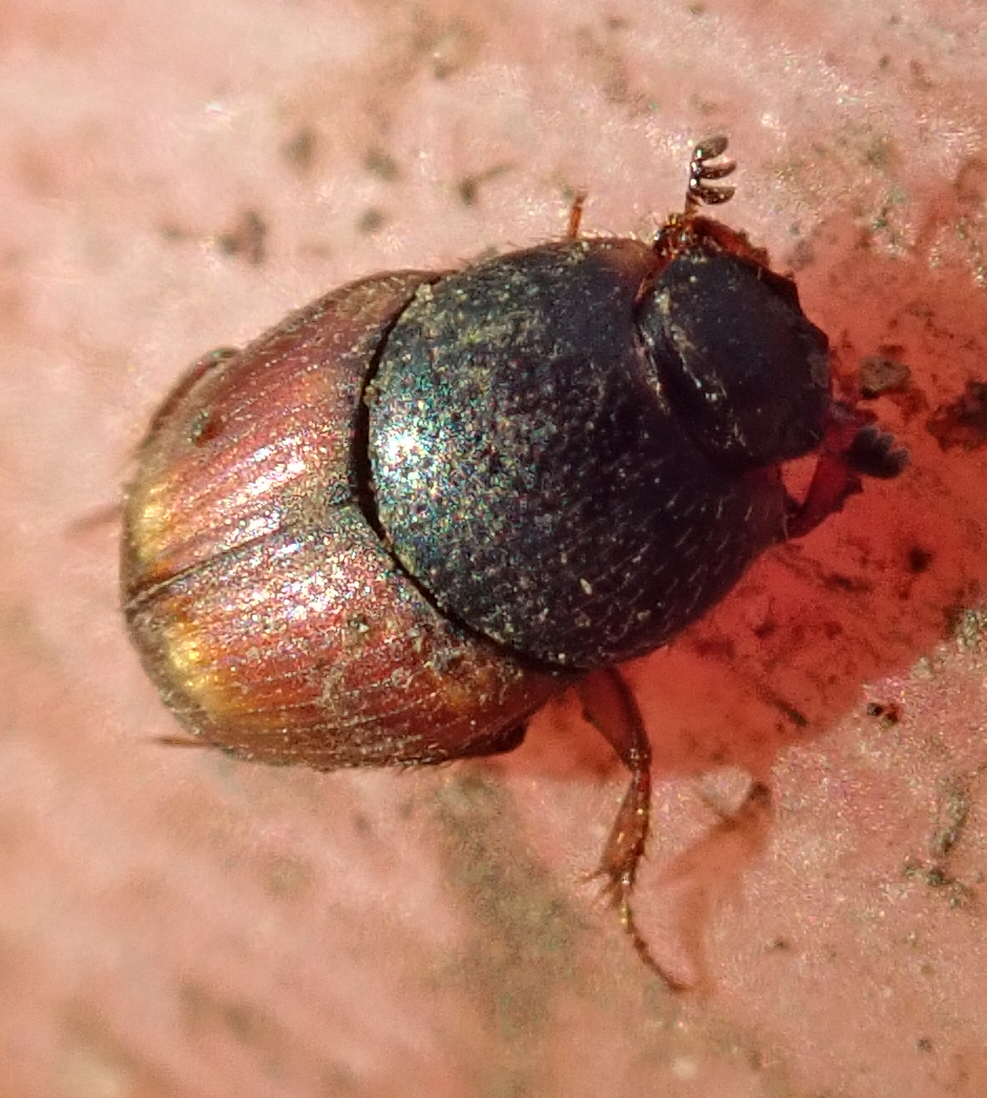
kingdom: Animalia
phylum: Arthropoda
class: Insecta
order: Coleoptera
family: Scarabaeidae
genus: Cleptocaccobius
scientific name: Cleptocaccobius viridicollis
